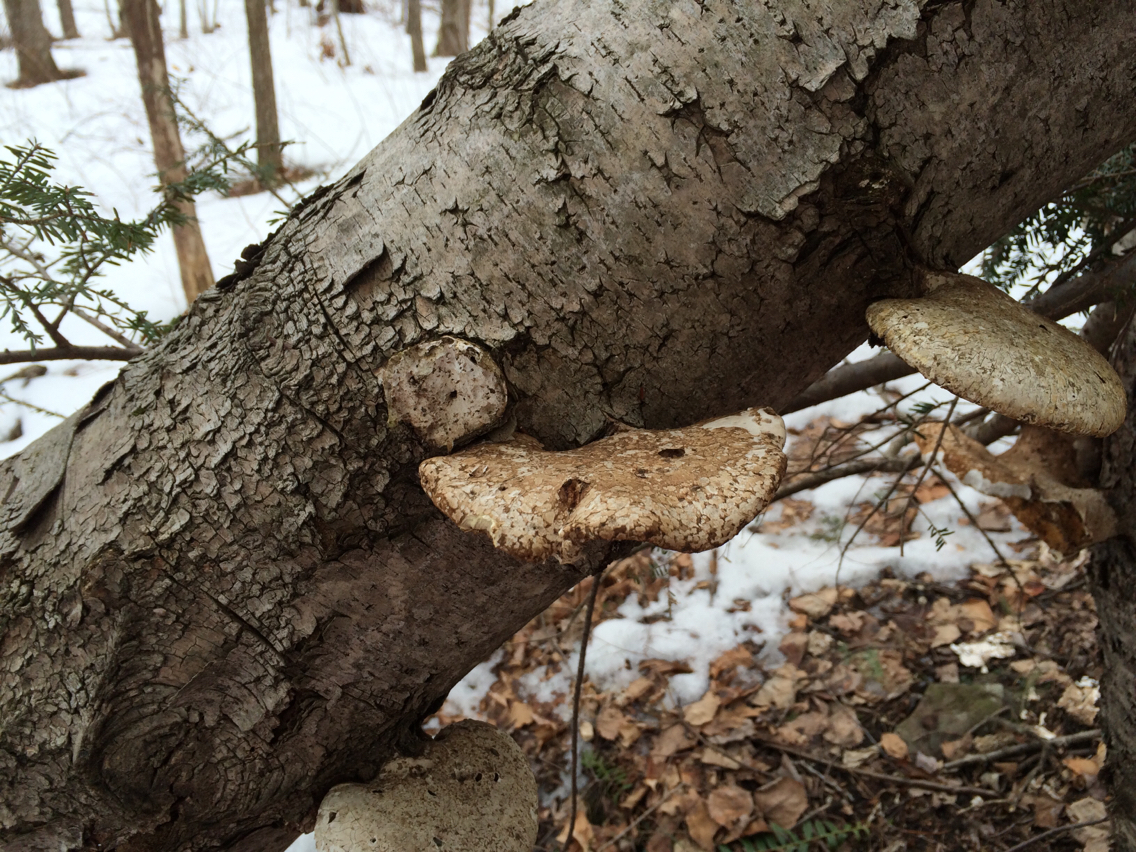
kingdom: Fungi
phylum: Basidiomycota
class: Agaricomycetes
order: Polyporales
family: Fomitopsidaceae
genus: Fomitopsis
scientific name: Fomitopsis betulina
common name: Birch polypore
